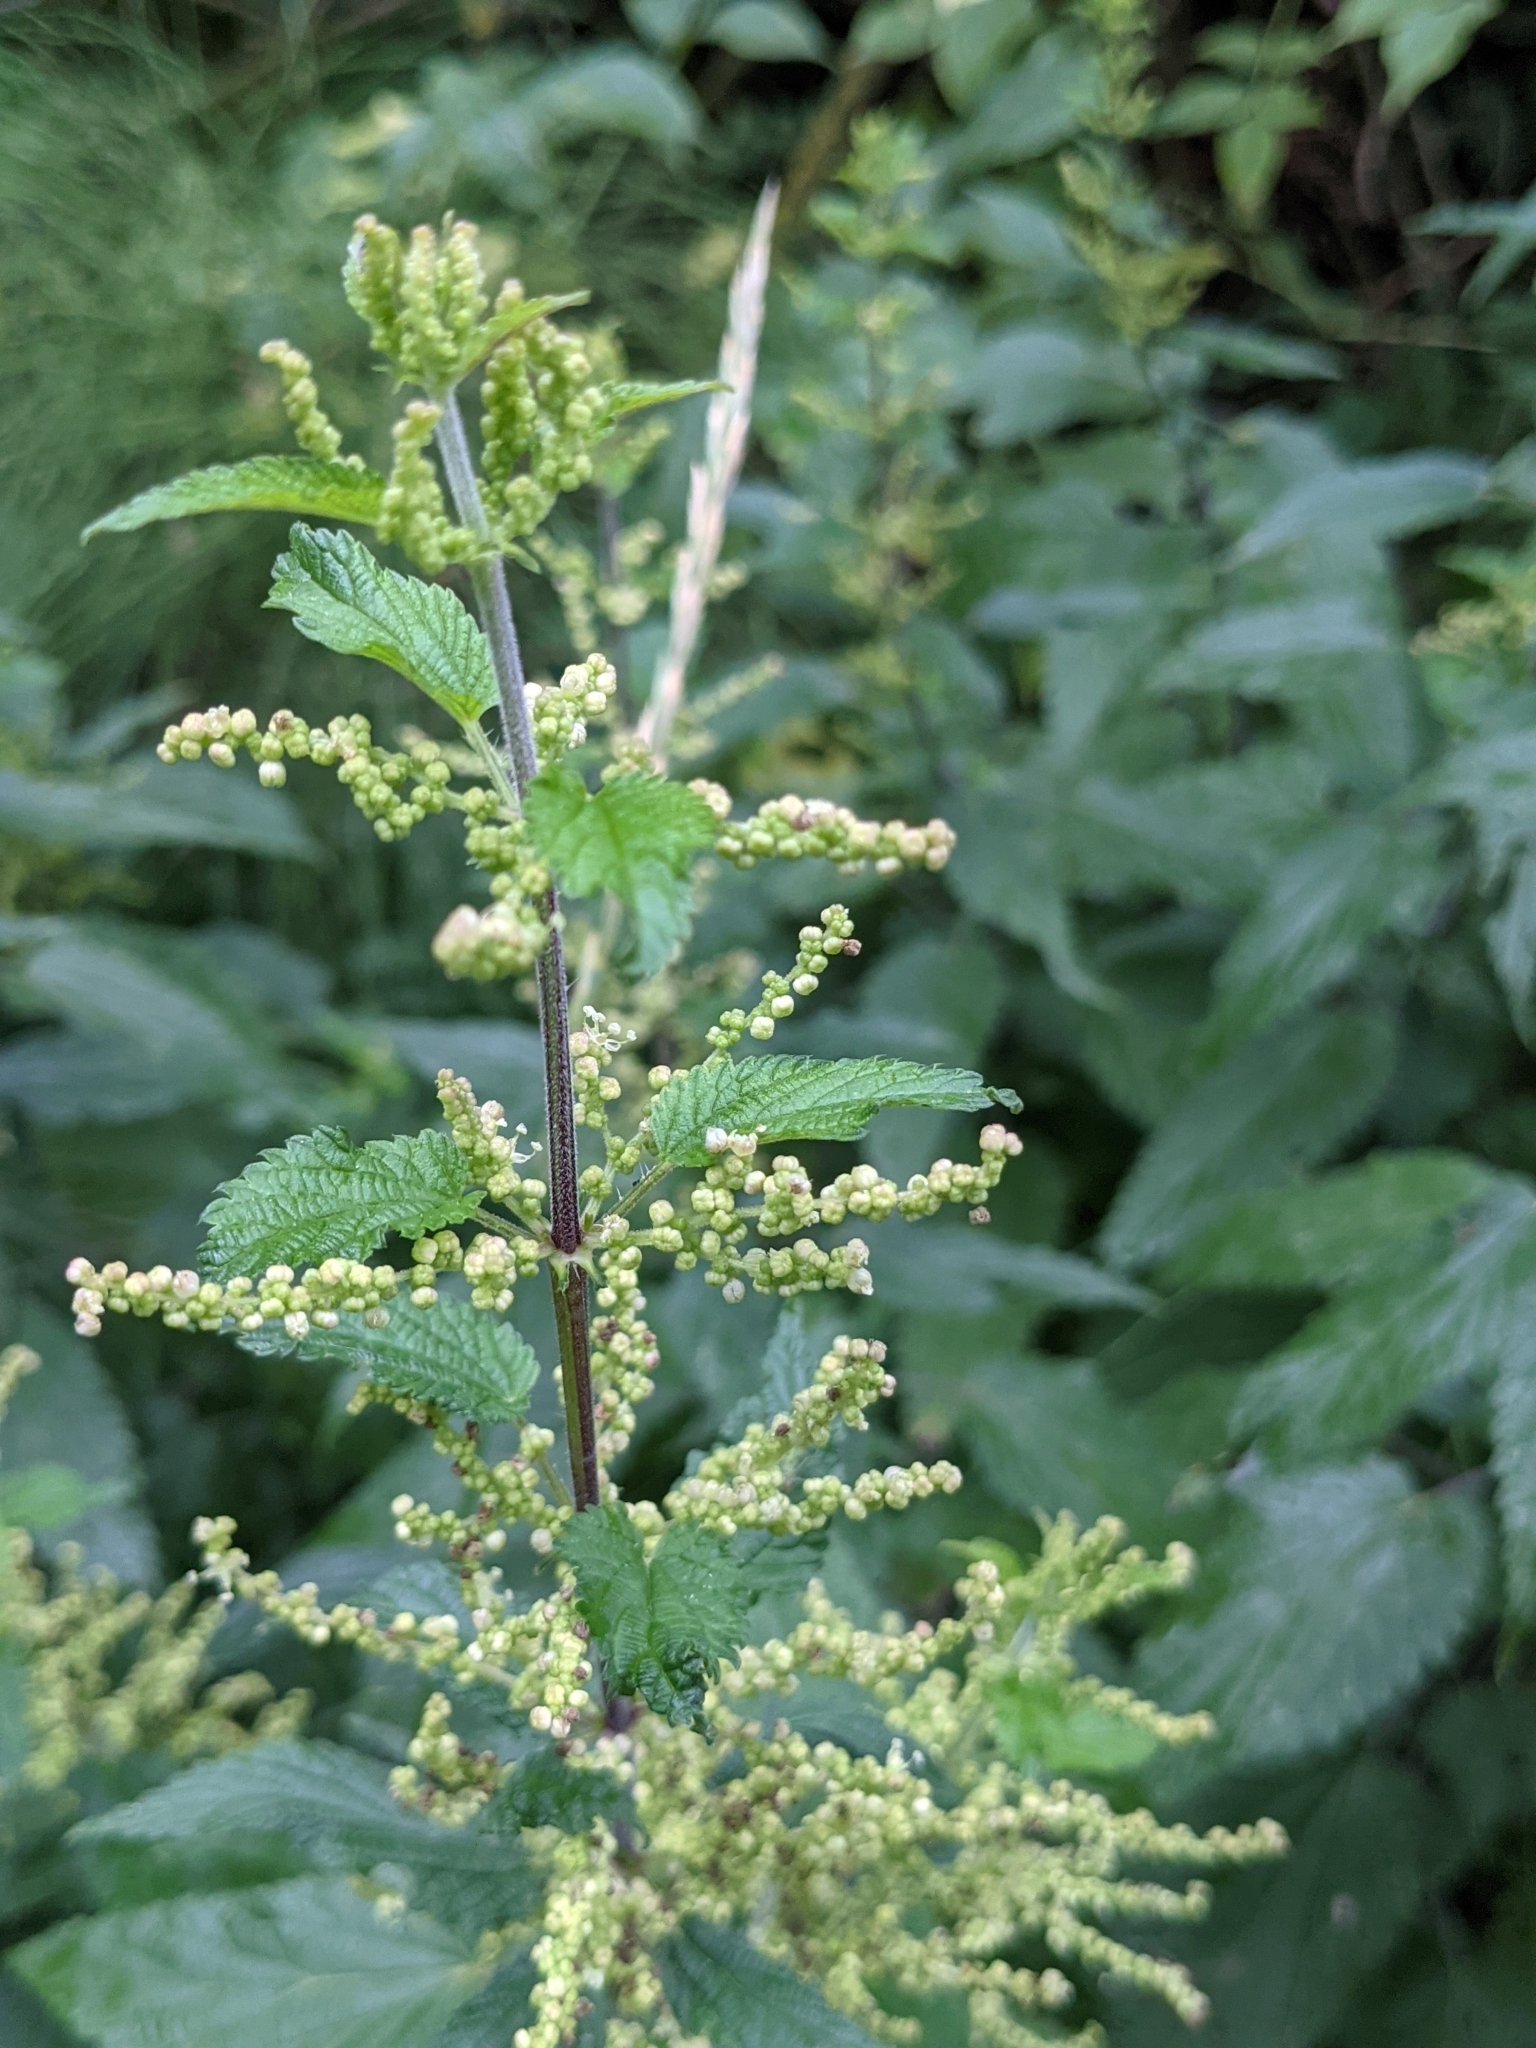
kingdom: Plantae
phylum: Tracheophyta
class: Magnoliopsida
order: Rosales
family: Urticaceae
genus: Urtica
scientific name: Urtica dioica
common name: Common nettle
